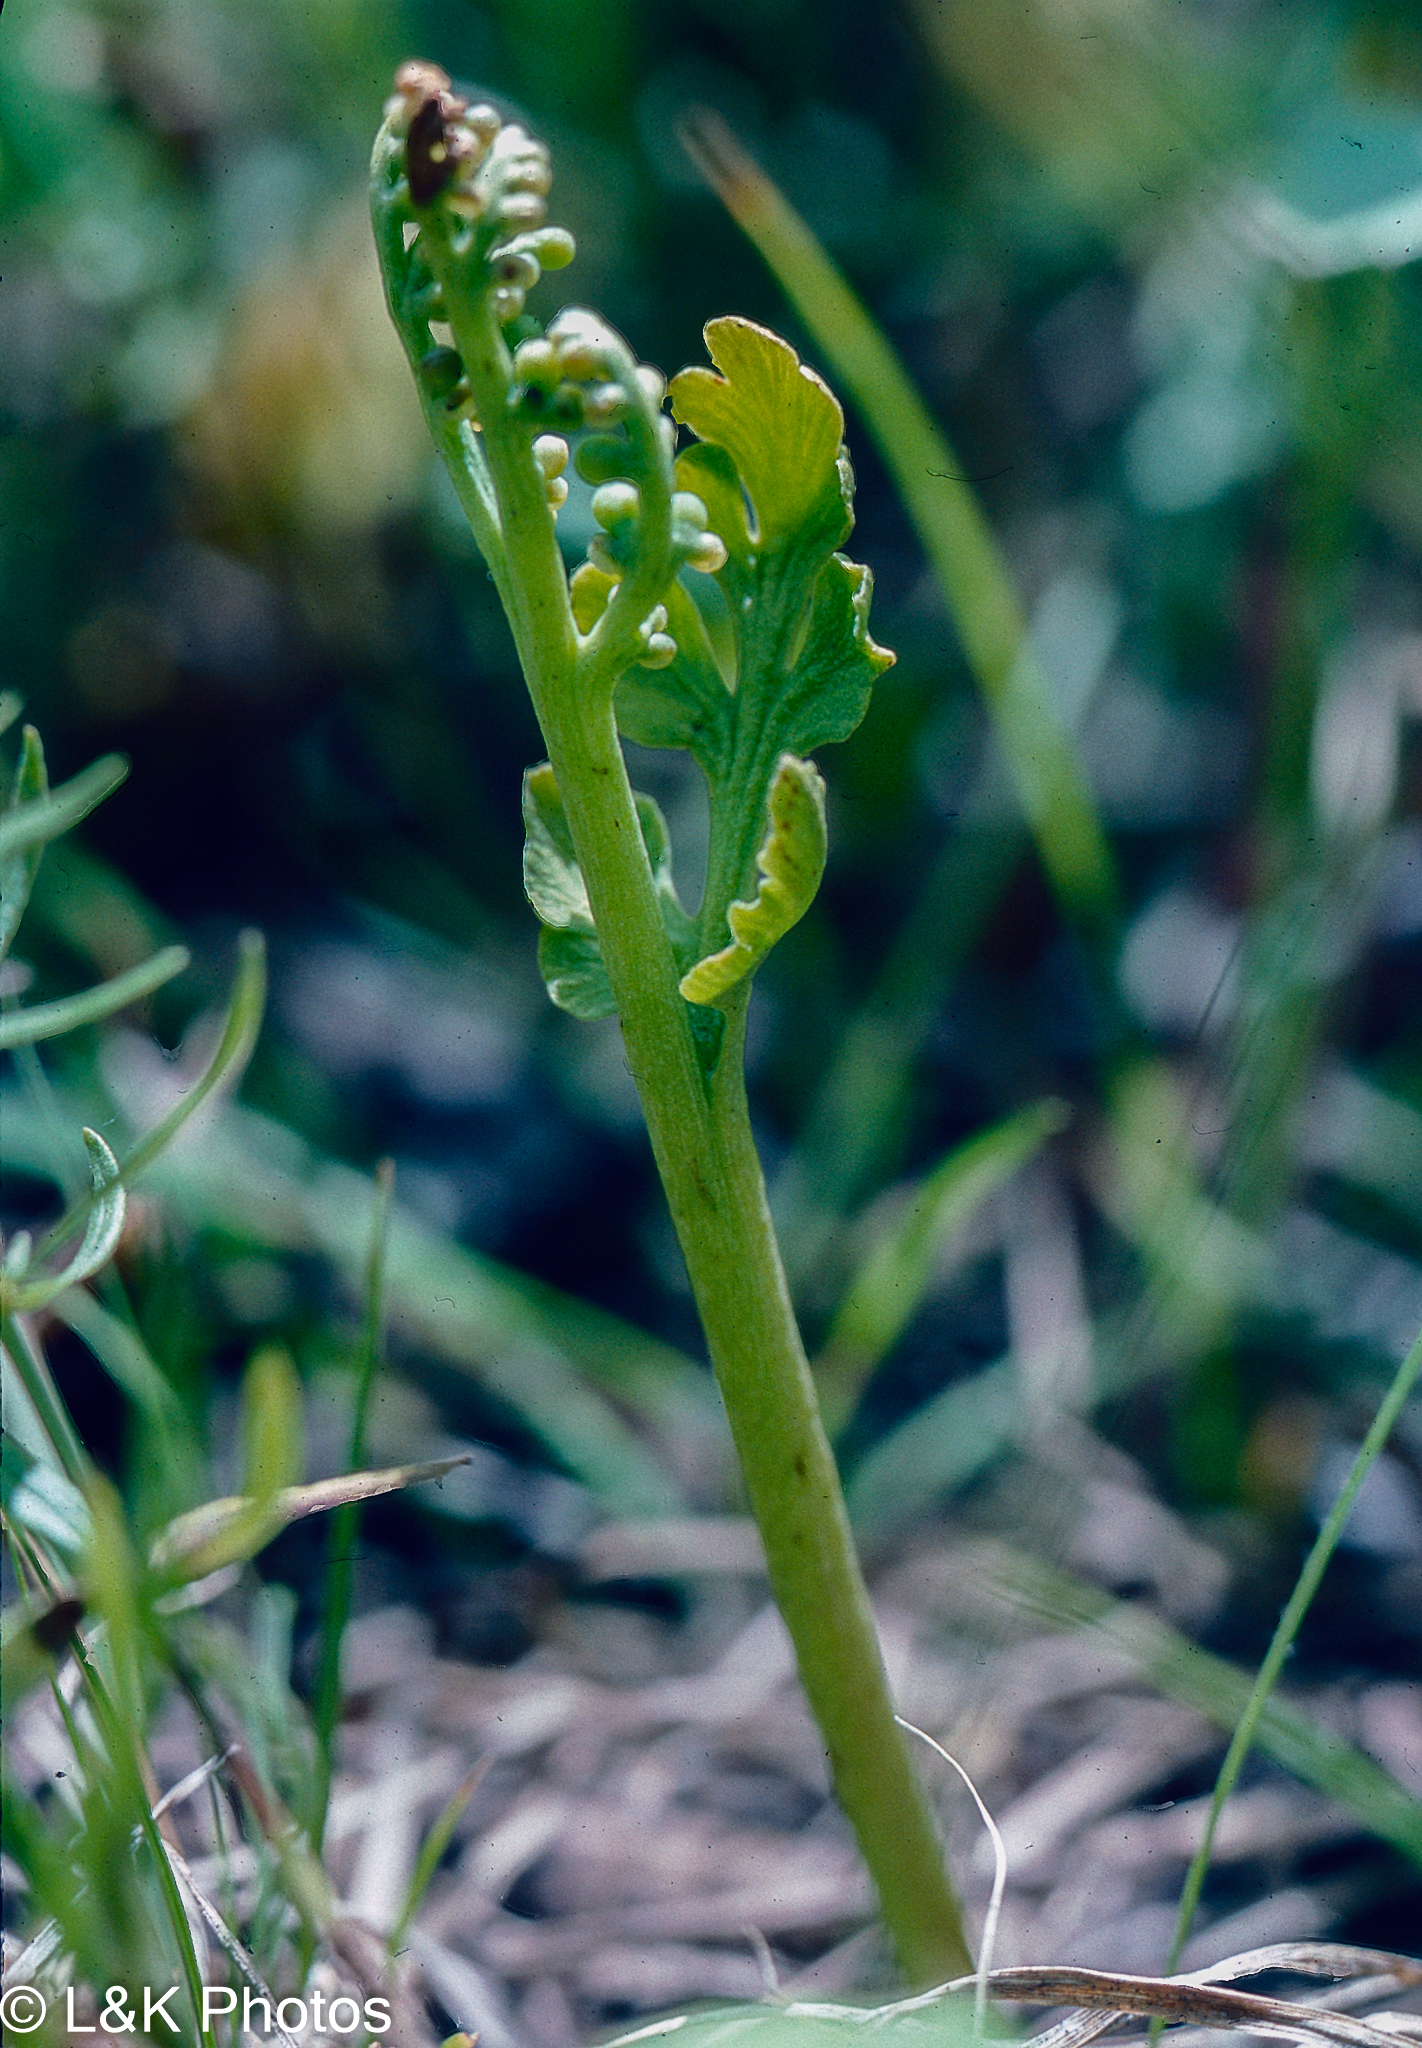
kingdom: Plantae
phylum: Tracheophyta
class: Polypodiopsida
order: Ophioglossales
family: Ophioglossaceae
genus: Botrychium
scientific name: Botrychium hesperium
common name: Western moonwort
